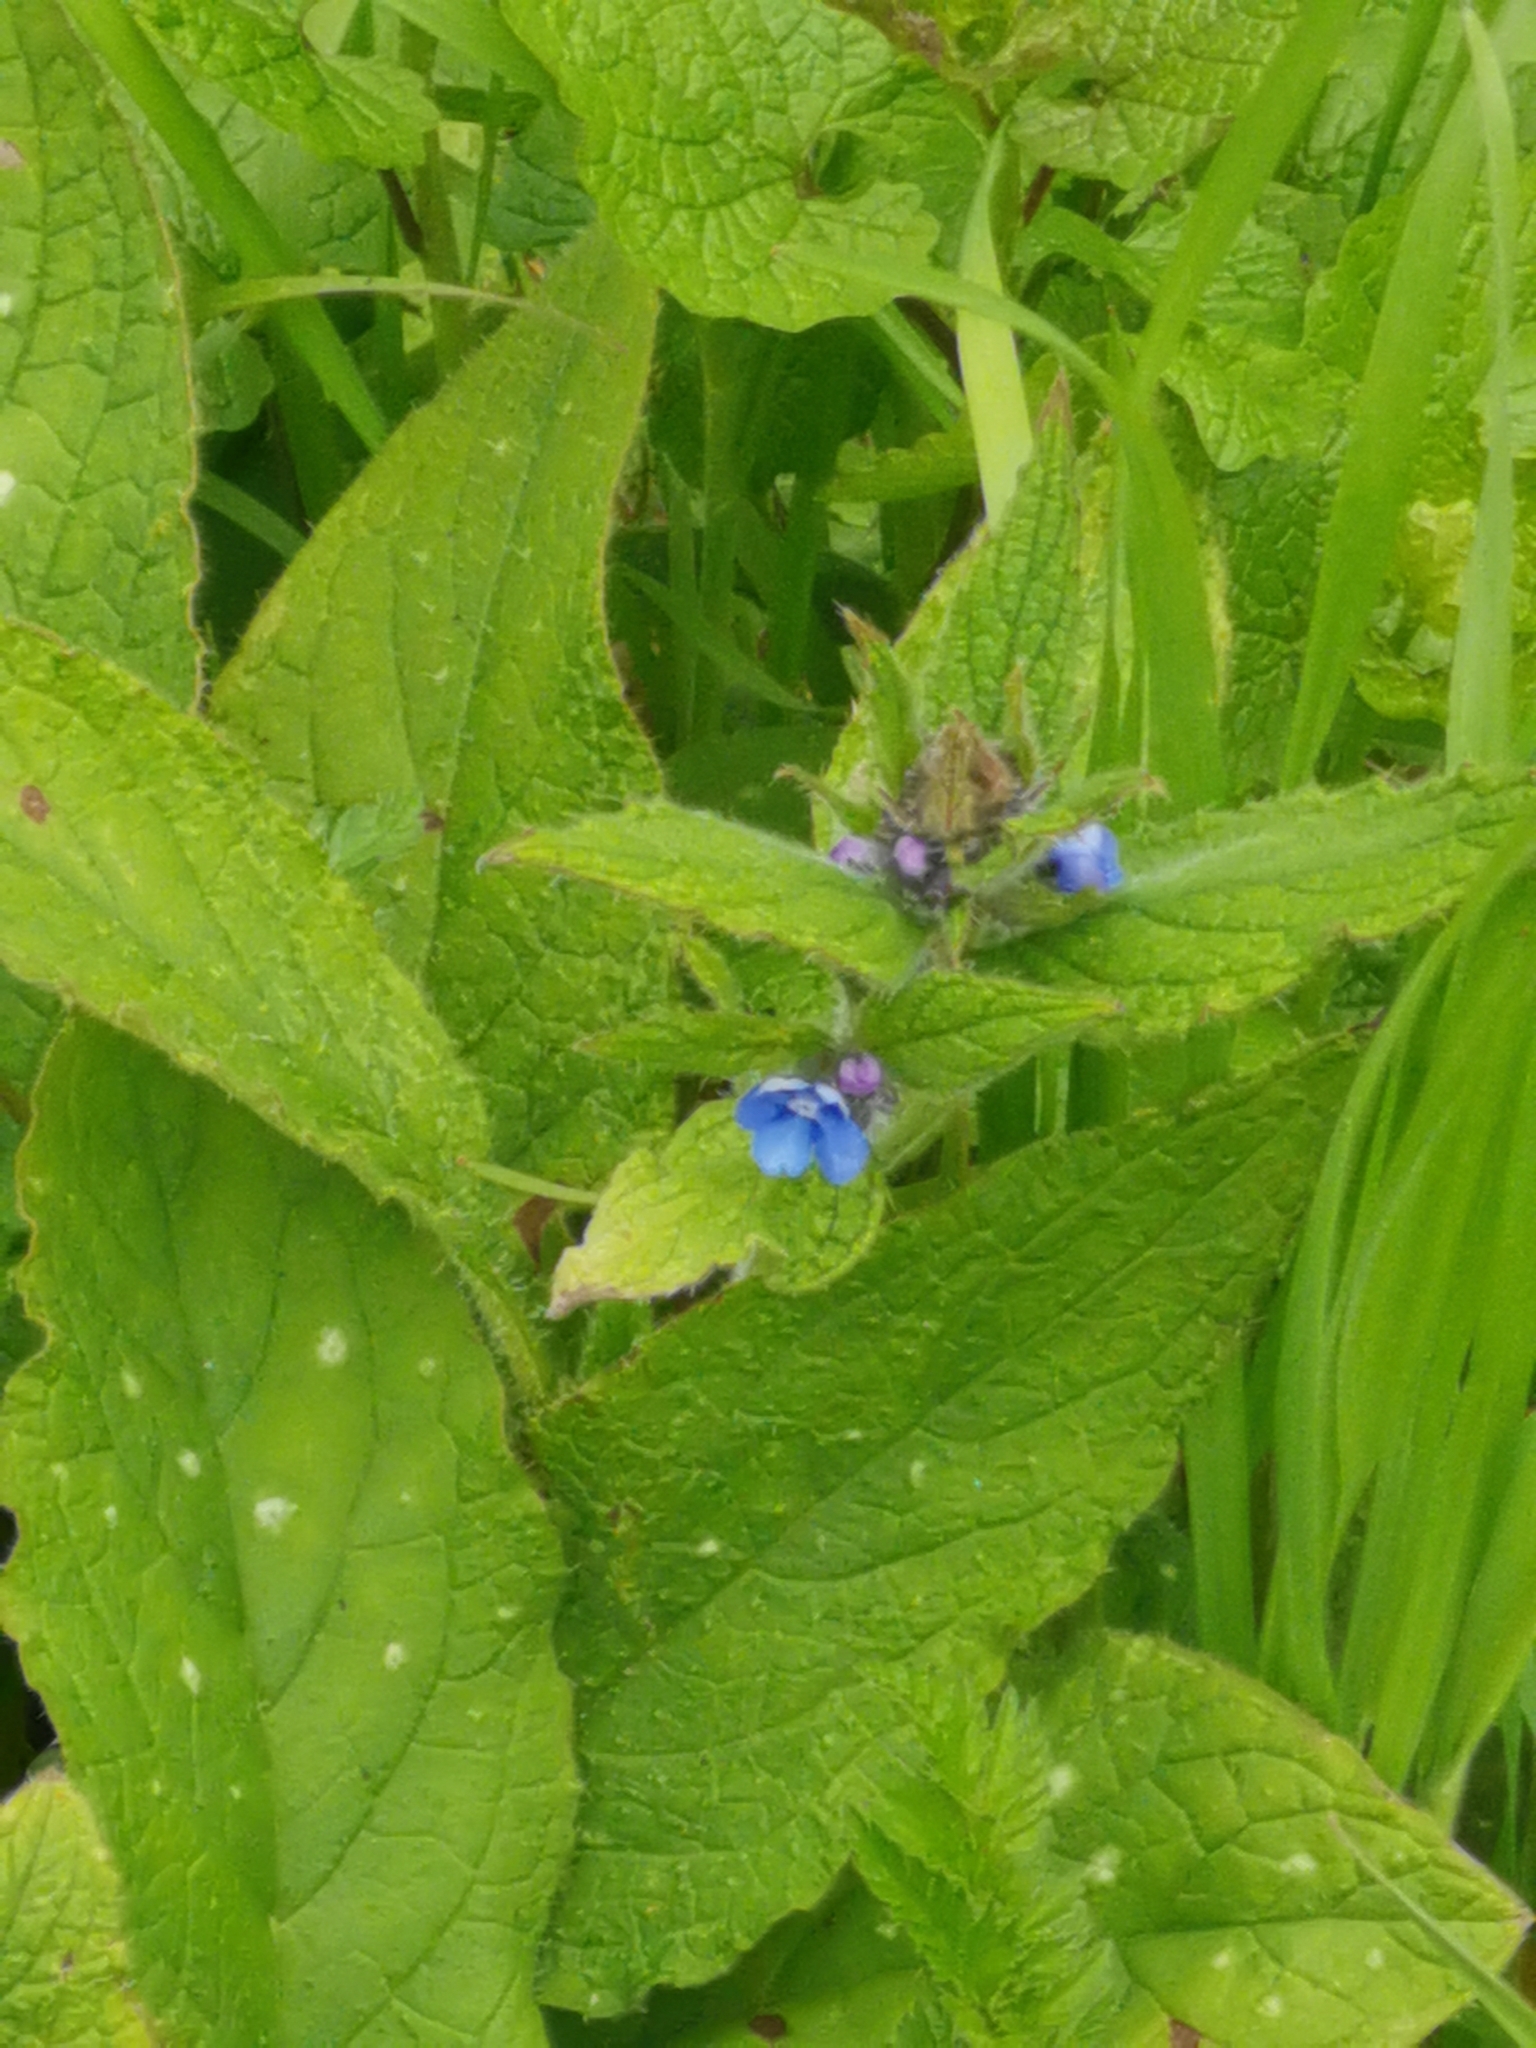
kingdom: Plantae
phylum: Tracheophyta
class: Magnoliopsida
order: Boraginales
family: Boraginaceae
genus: Pentaglottis
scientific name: Pentaglottis sempervirens
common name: Green alkanet
